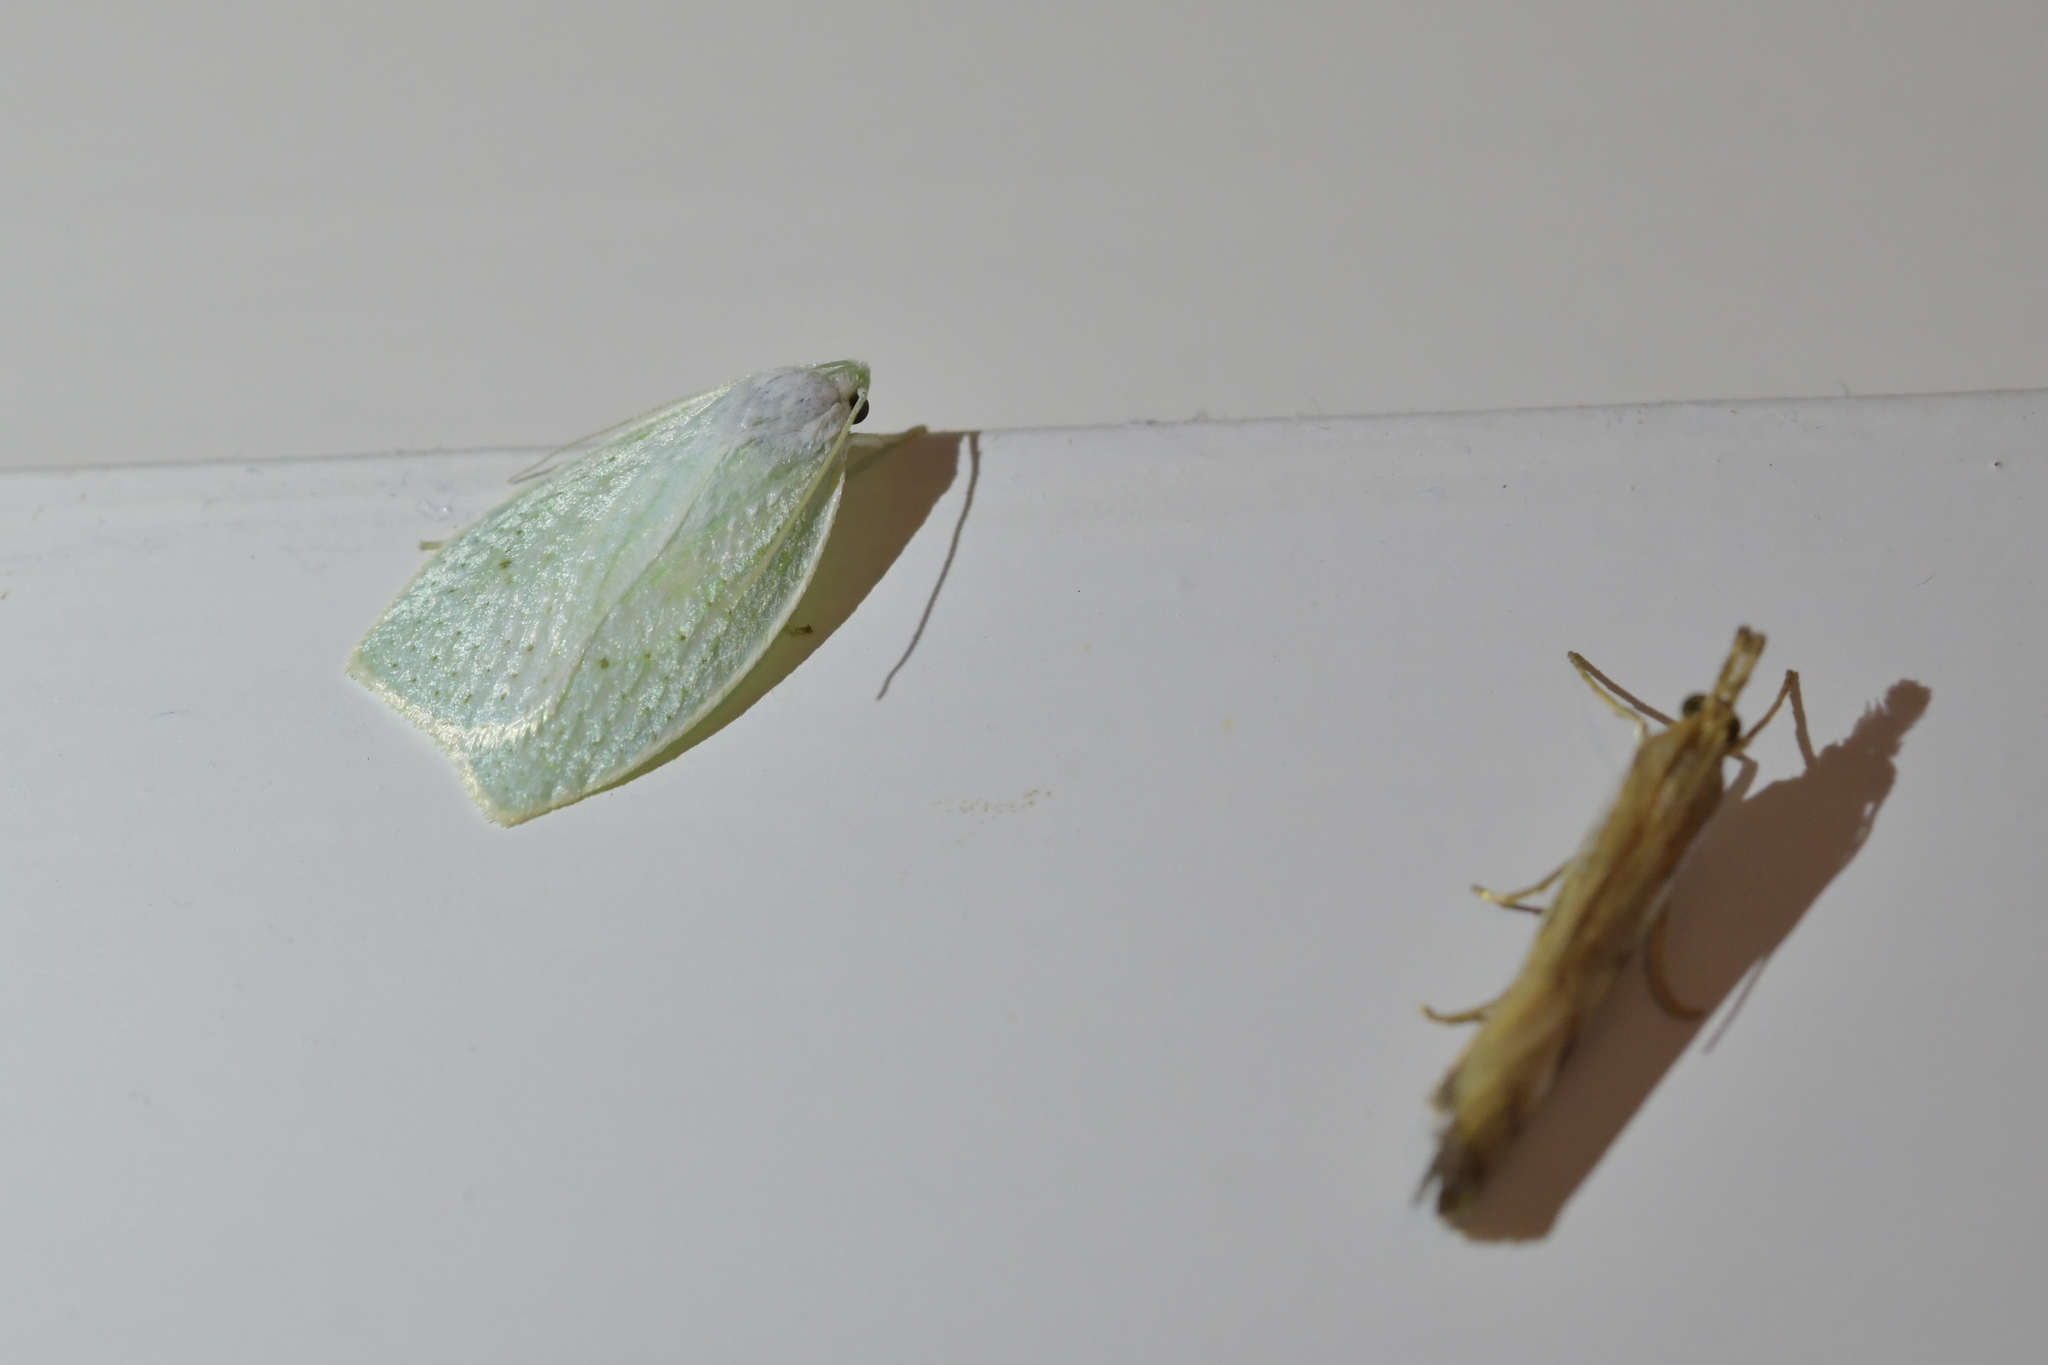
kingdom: Animalia
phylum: Arthropoda
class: Insecta
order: Lepidoptera
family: Oecophoridae
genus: Nymphostola
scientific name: Nymphostola galactina
